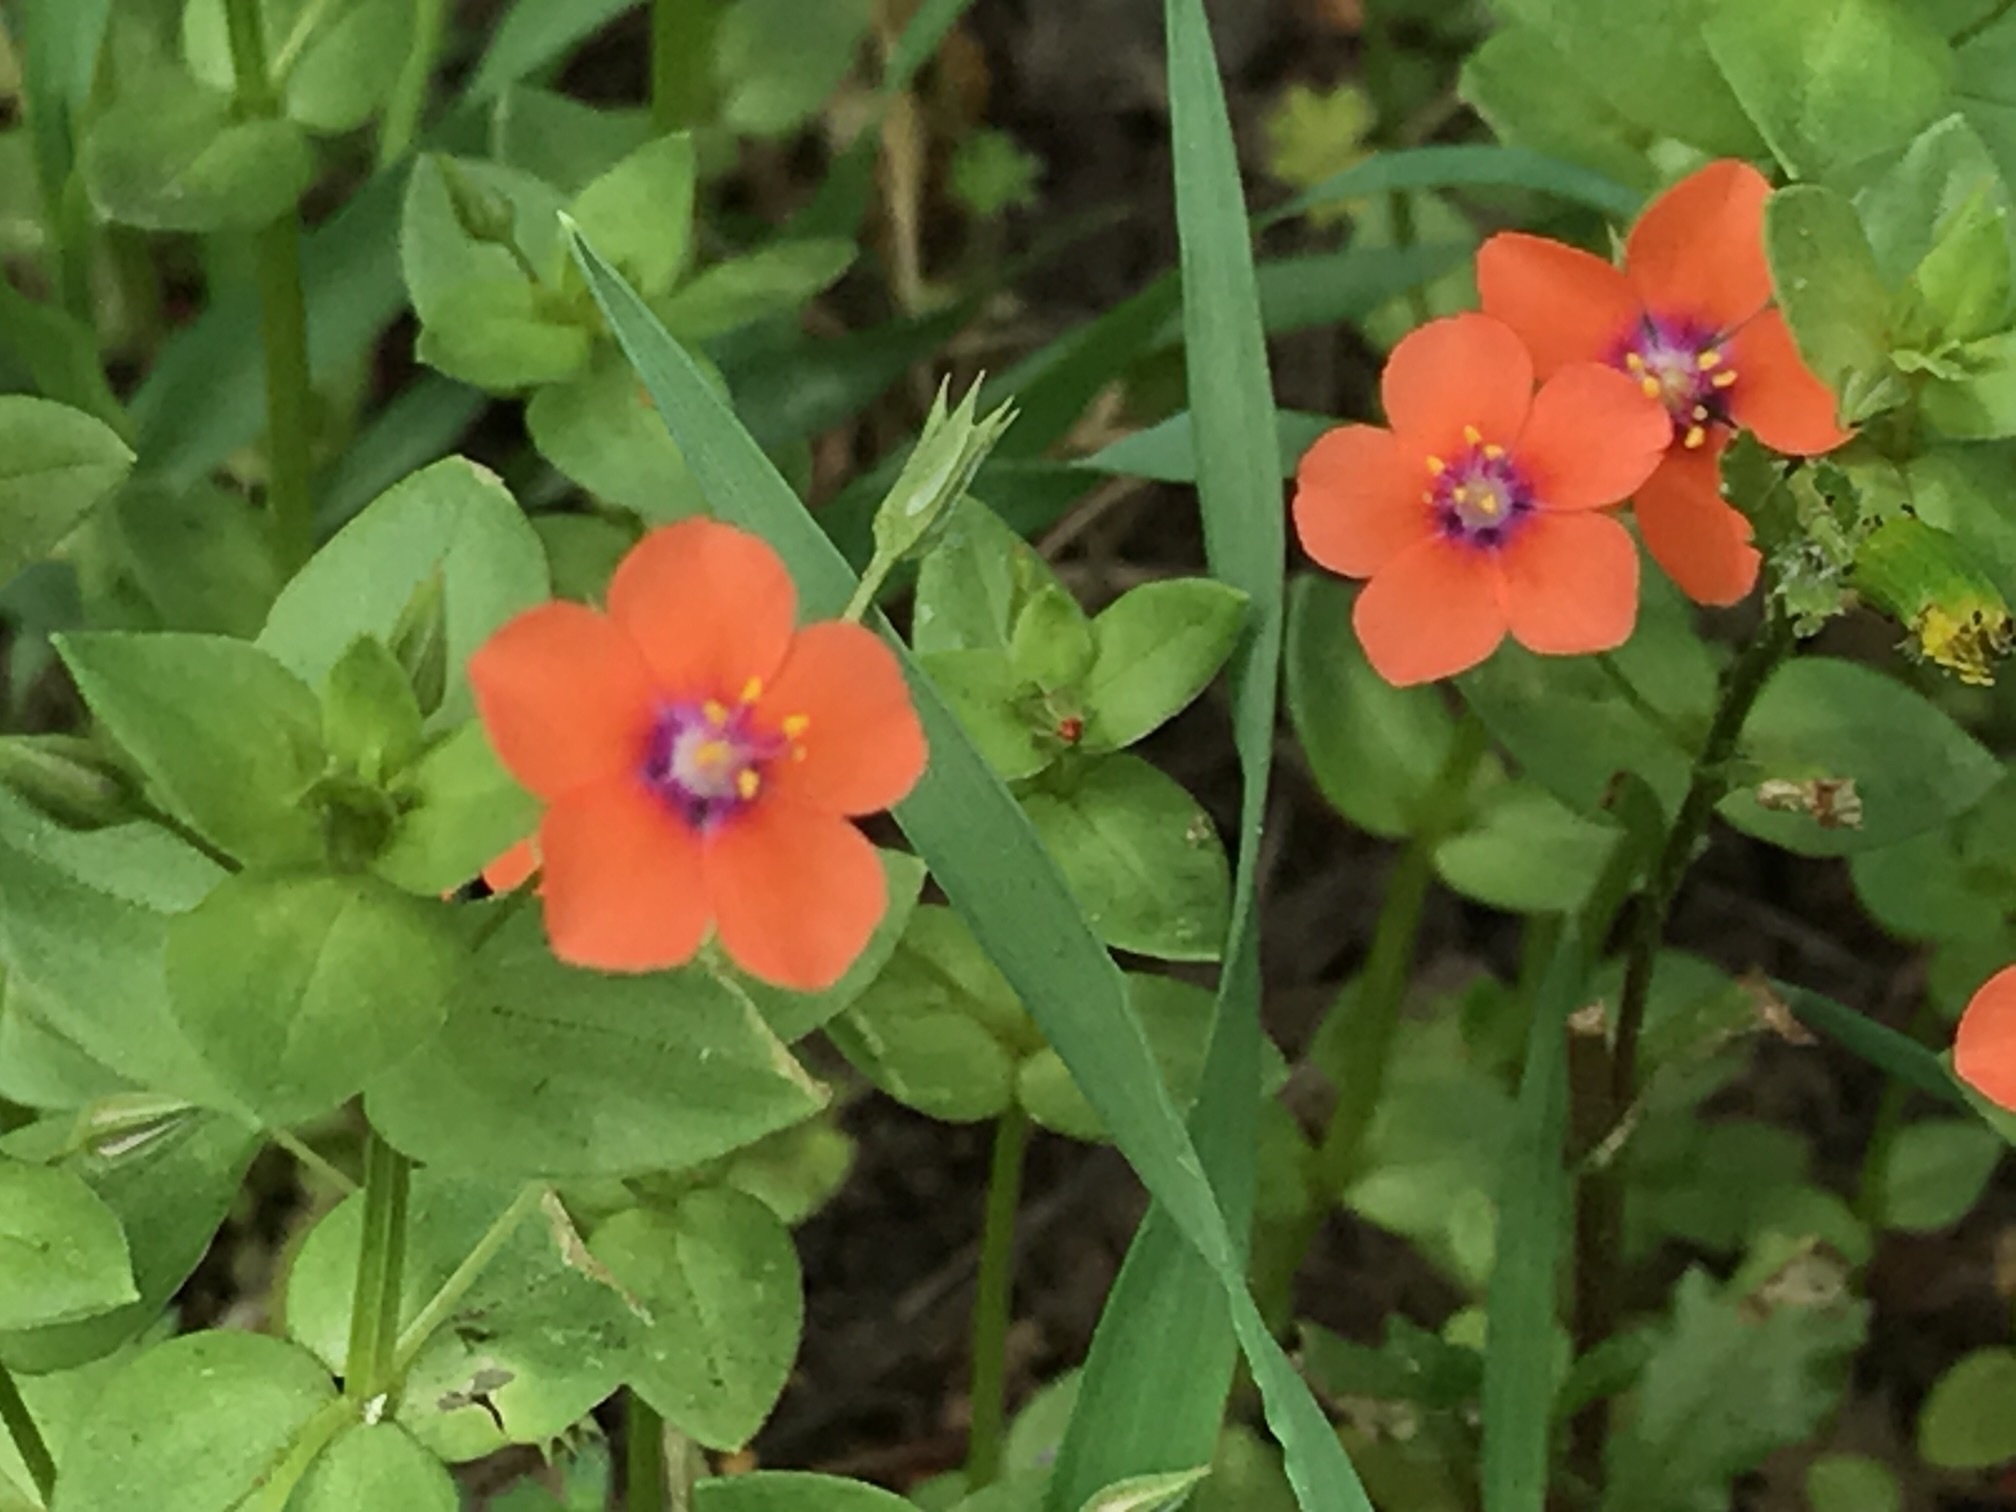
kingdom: Plantae
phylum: Tracheophyta
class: Magnoliopsida
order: Ericales
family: Primulaceae
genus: Lysimachia
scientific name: Lysimachia arvensis
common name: Scarlet pimpernel
